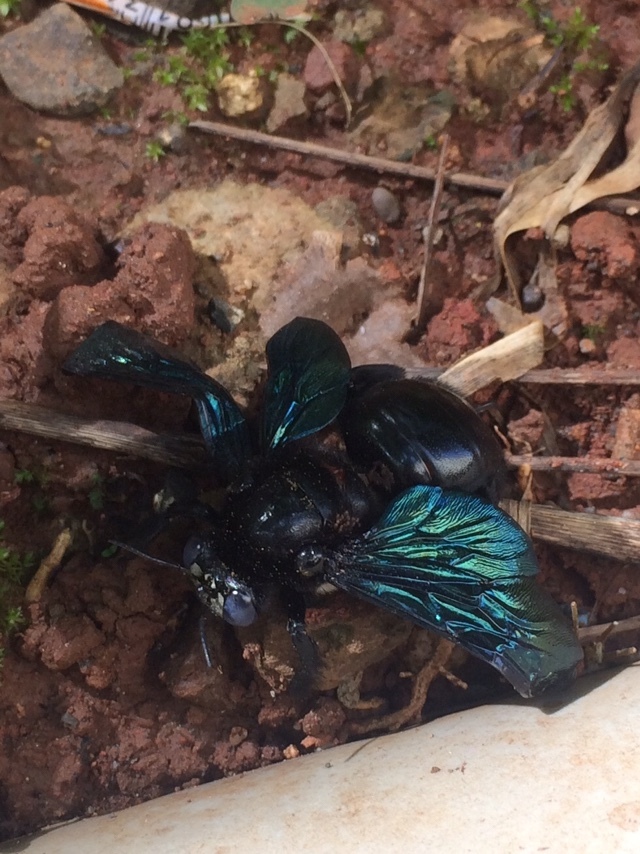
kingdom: Animalia
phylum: Arthropoda
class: Insecta
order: Hymenoptera
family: Apidae
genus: Xylocopa
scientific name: Xylocopa auripennis
